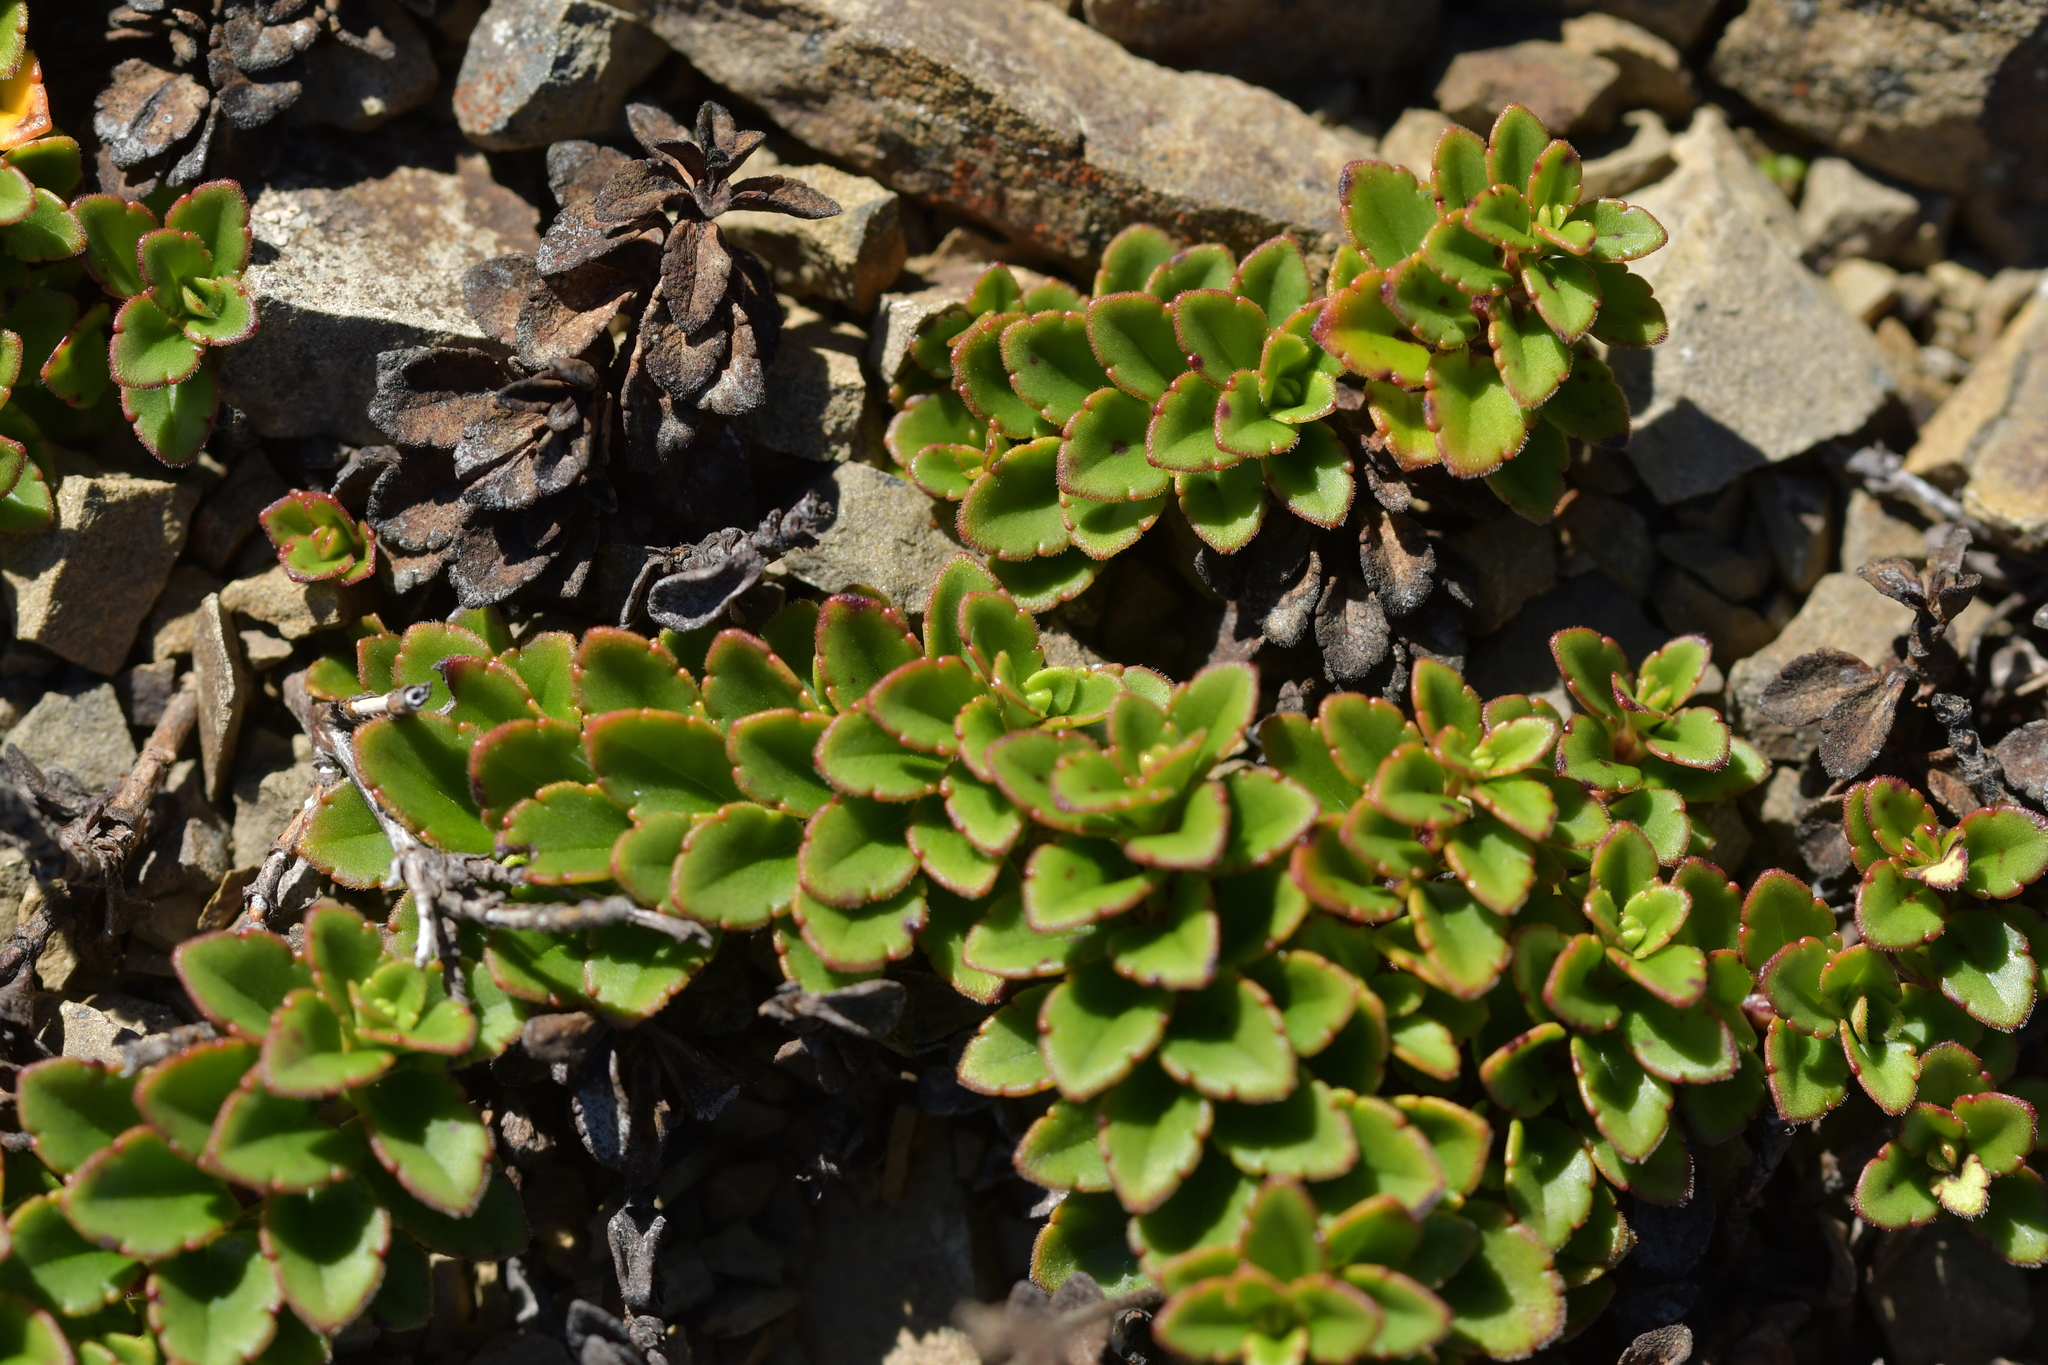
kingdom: Plantae
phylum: Tracheophyta
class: Magnoliopsida
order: Lamiales
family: Plantaginaceae
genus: Veronica
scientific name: Veronica hookeriana
